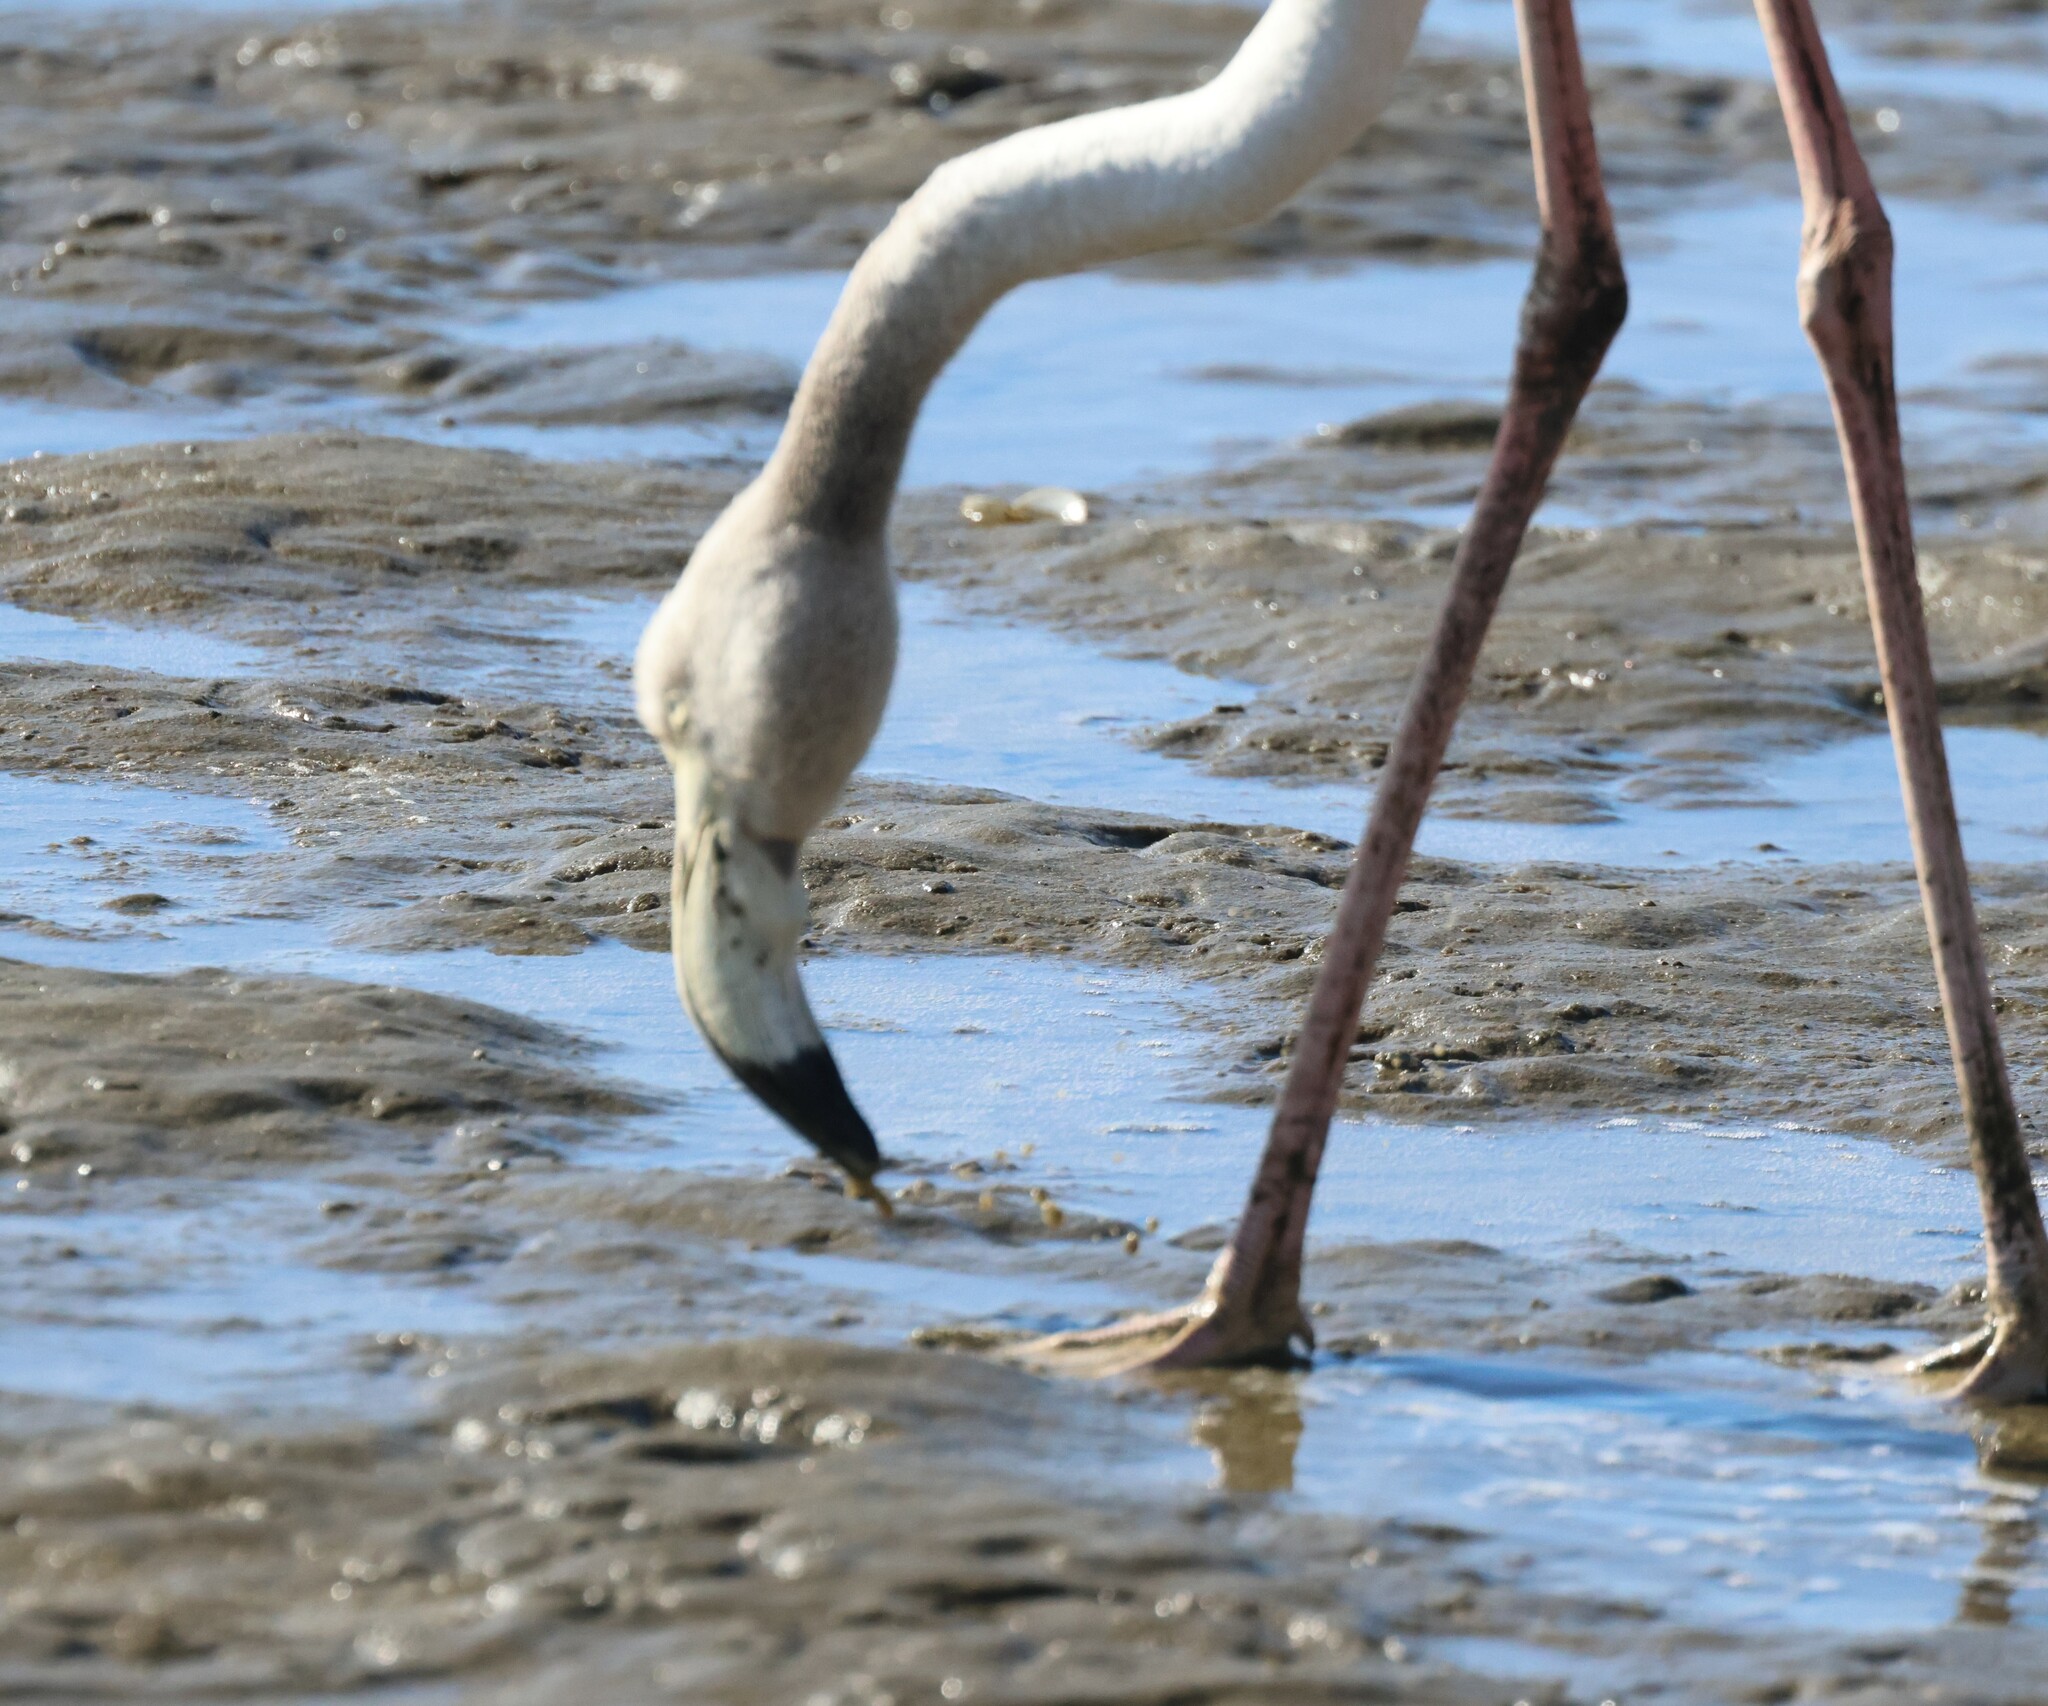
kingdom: Animalia
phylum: Chordata
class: Aves
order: Phoenicopteriformes
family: Phoenicopteridae
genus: Phoenicopterus
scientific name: Phoenicopterus roseus
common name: Greater flamingo
